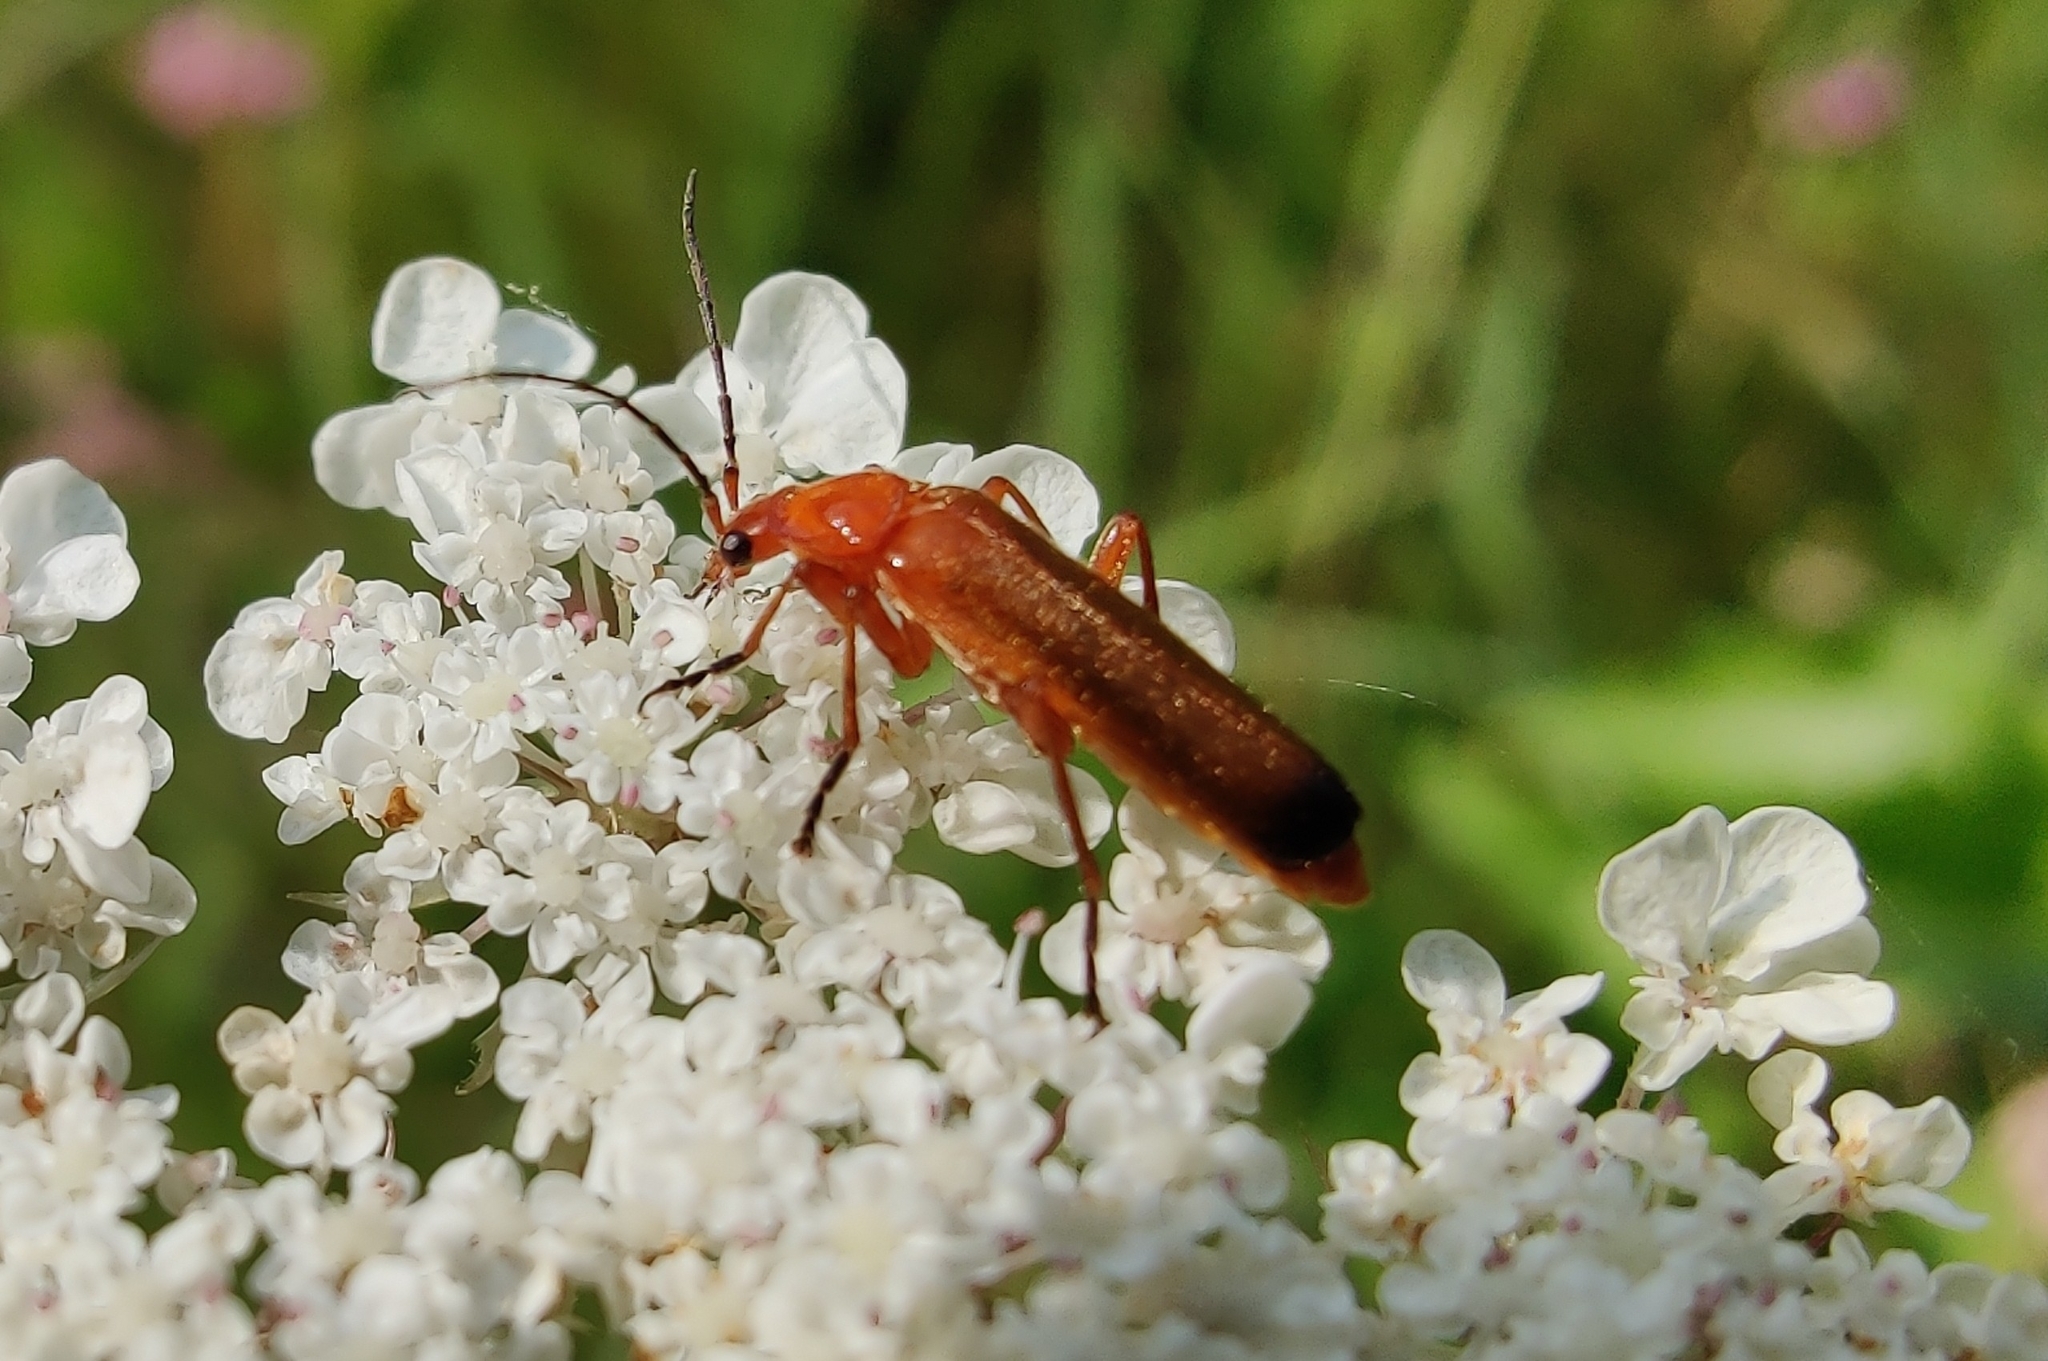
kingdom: Animalia
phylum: Arthropoda
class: Insecta
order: Coleoptera
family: Cantharidae
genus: Rhagonycha
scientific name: Rhagonycha fulva
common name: Common red soldier beetle
